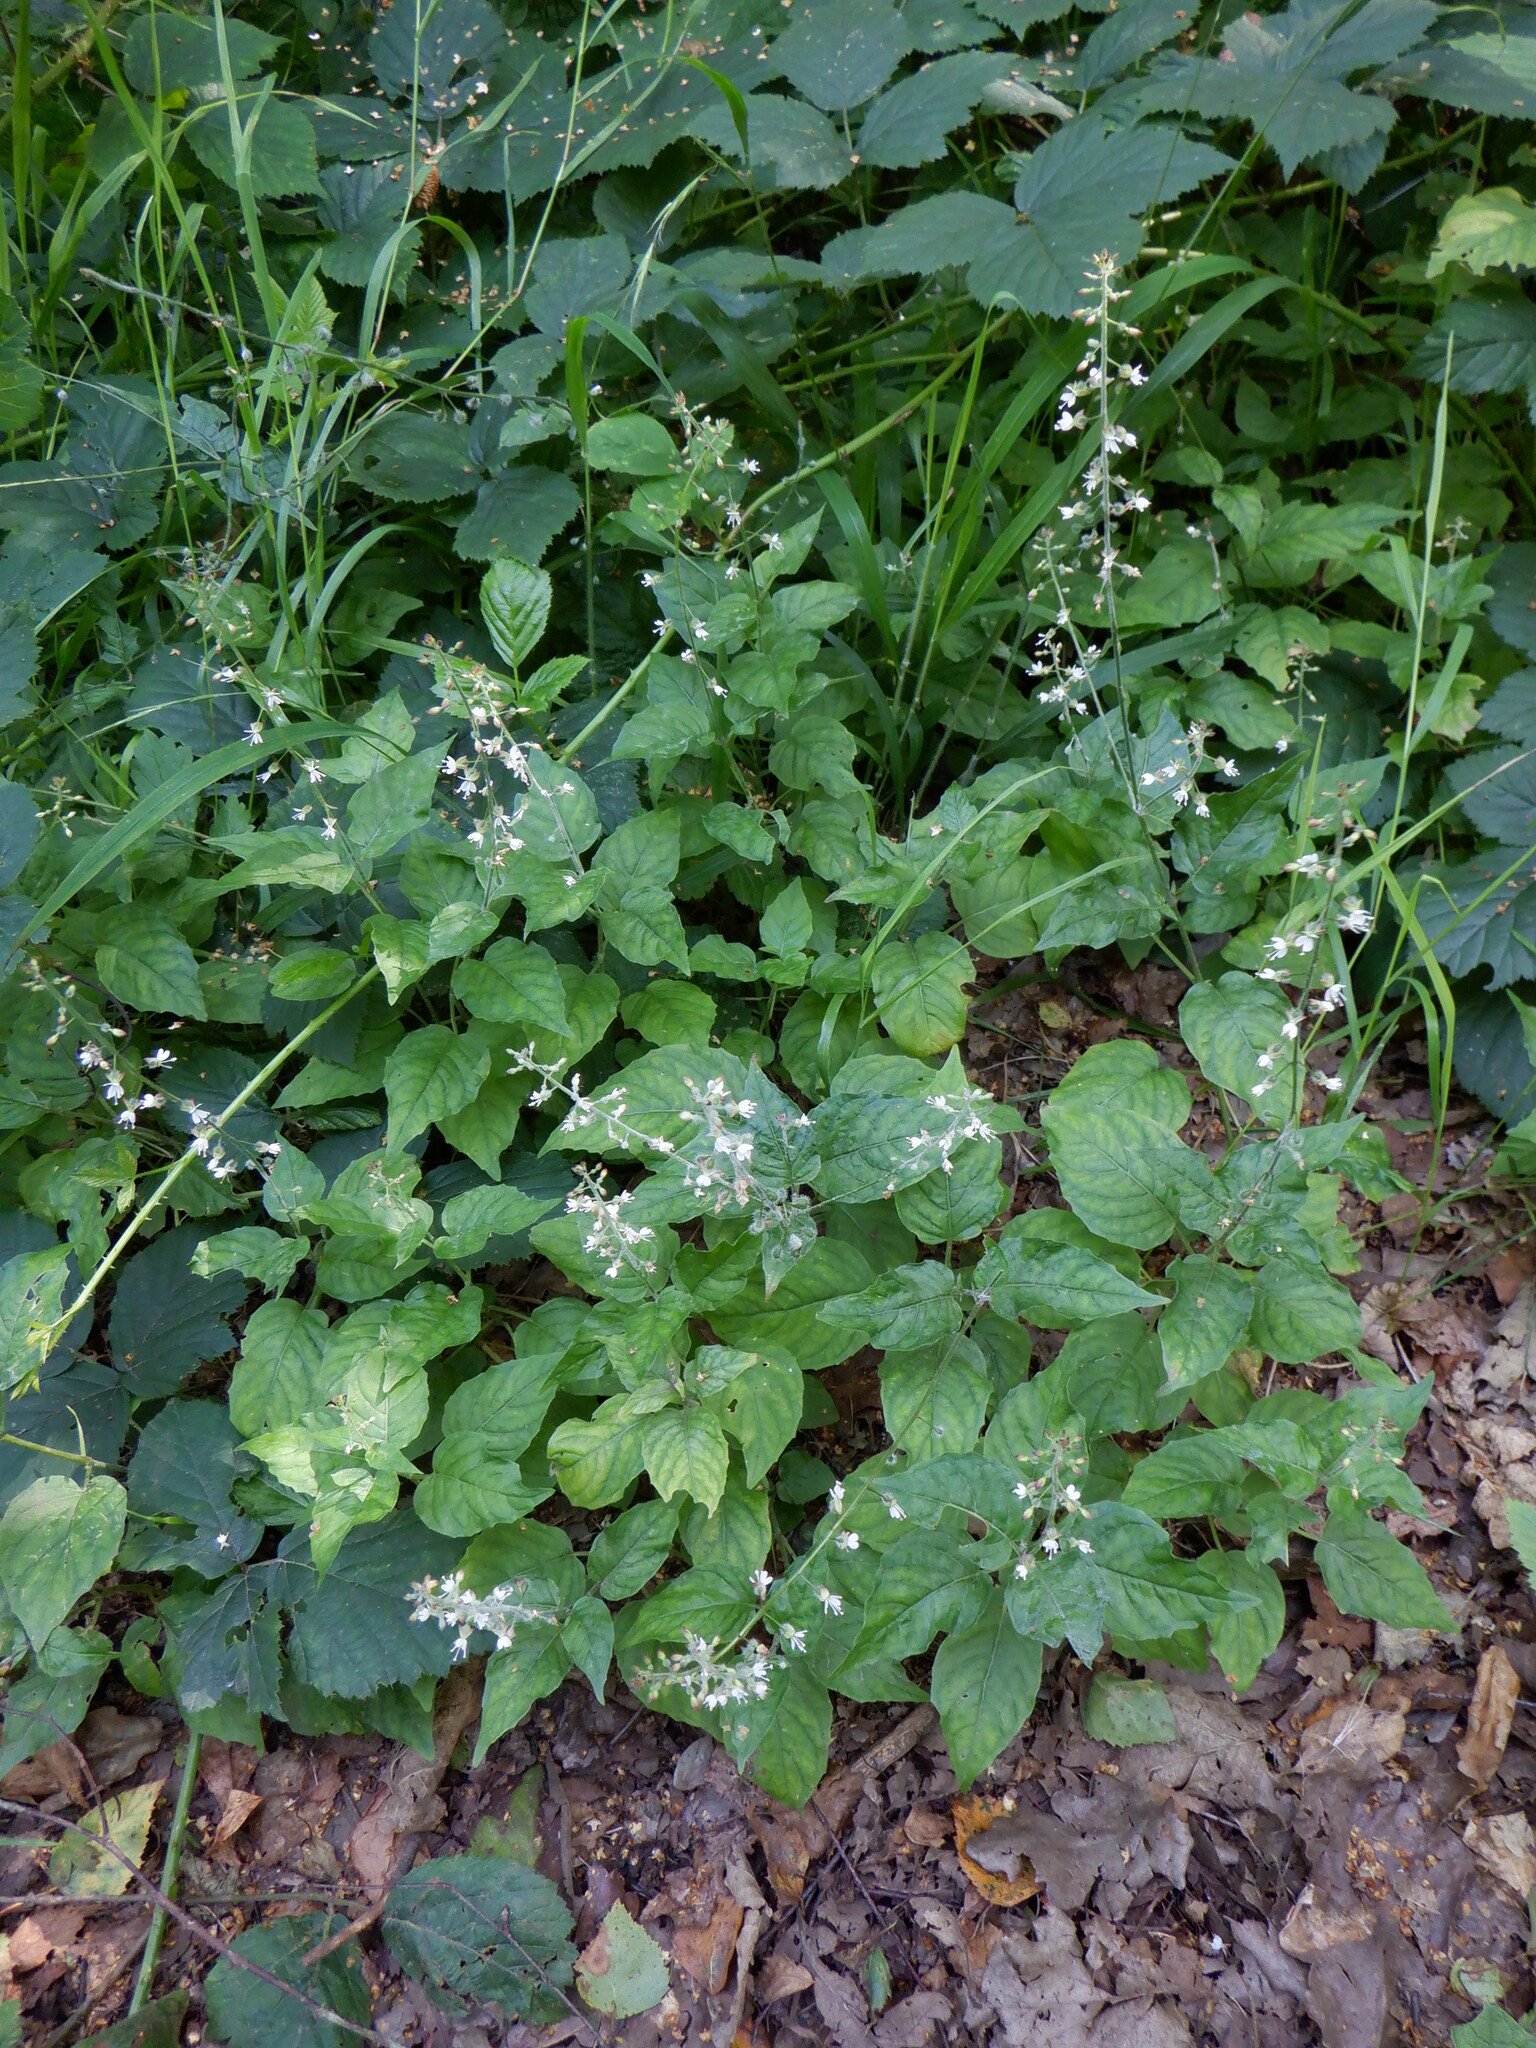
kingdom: Plantae
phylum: Tracheophyta
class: Magnoliopsida
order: Myrtales
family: Onagraceae
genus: Circaea
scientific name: Circaea lutetiana
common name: Enchanter's-nightshade
